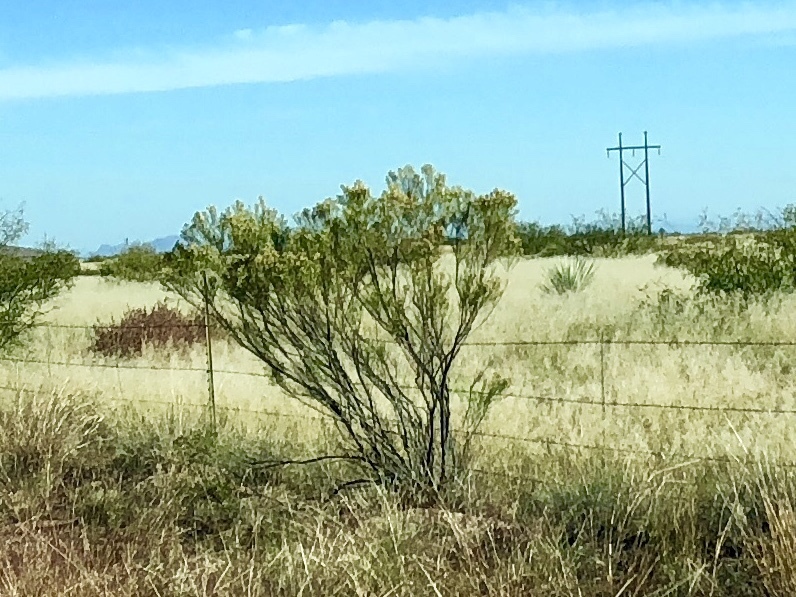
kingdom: Plantae
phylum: Tracheophyta
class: Magnoliopsida
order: Asterales
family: Asteraceae
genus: Baccharis
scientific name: Baccharis sarothroides
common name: Desert-broom
